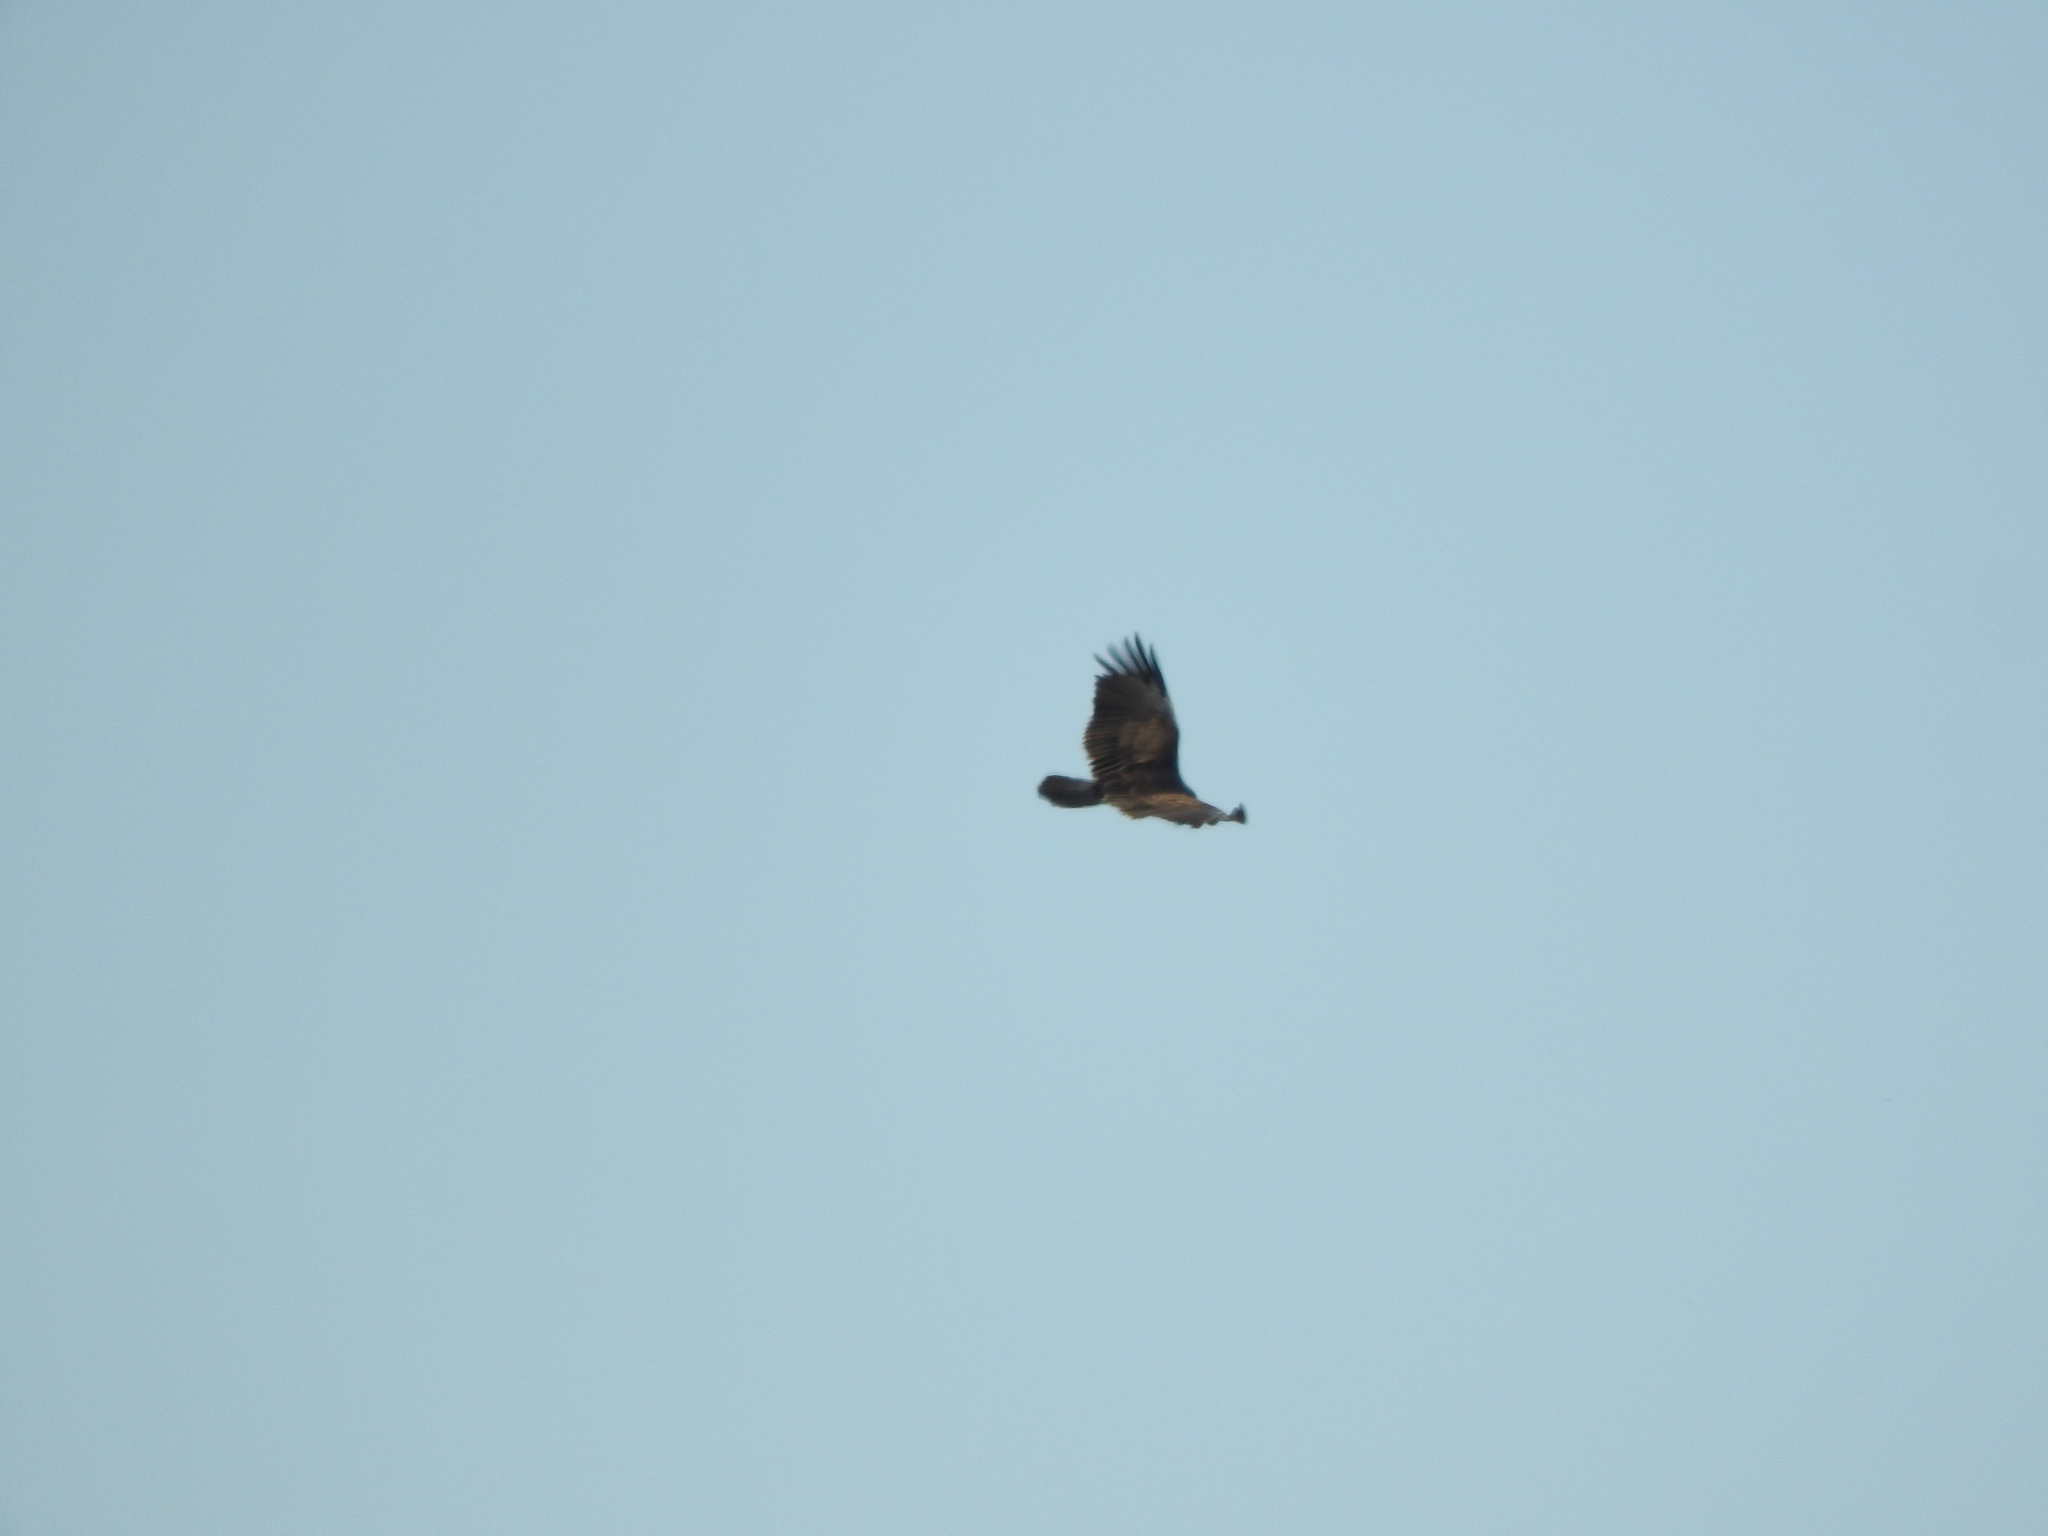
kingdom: Animalia
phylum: Chordata
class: Aves
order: Accipitriformes
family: Cathartidae
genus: Cathartes
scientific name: Cathartes aura
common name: Turkey vulture
